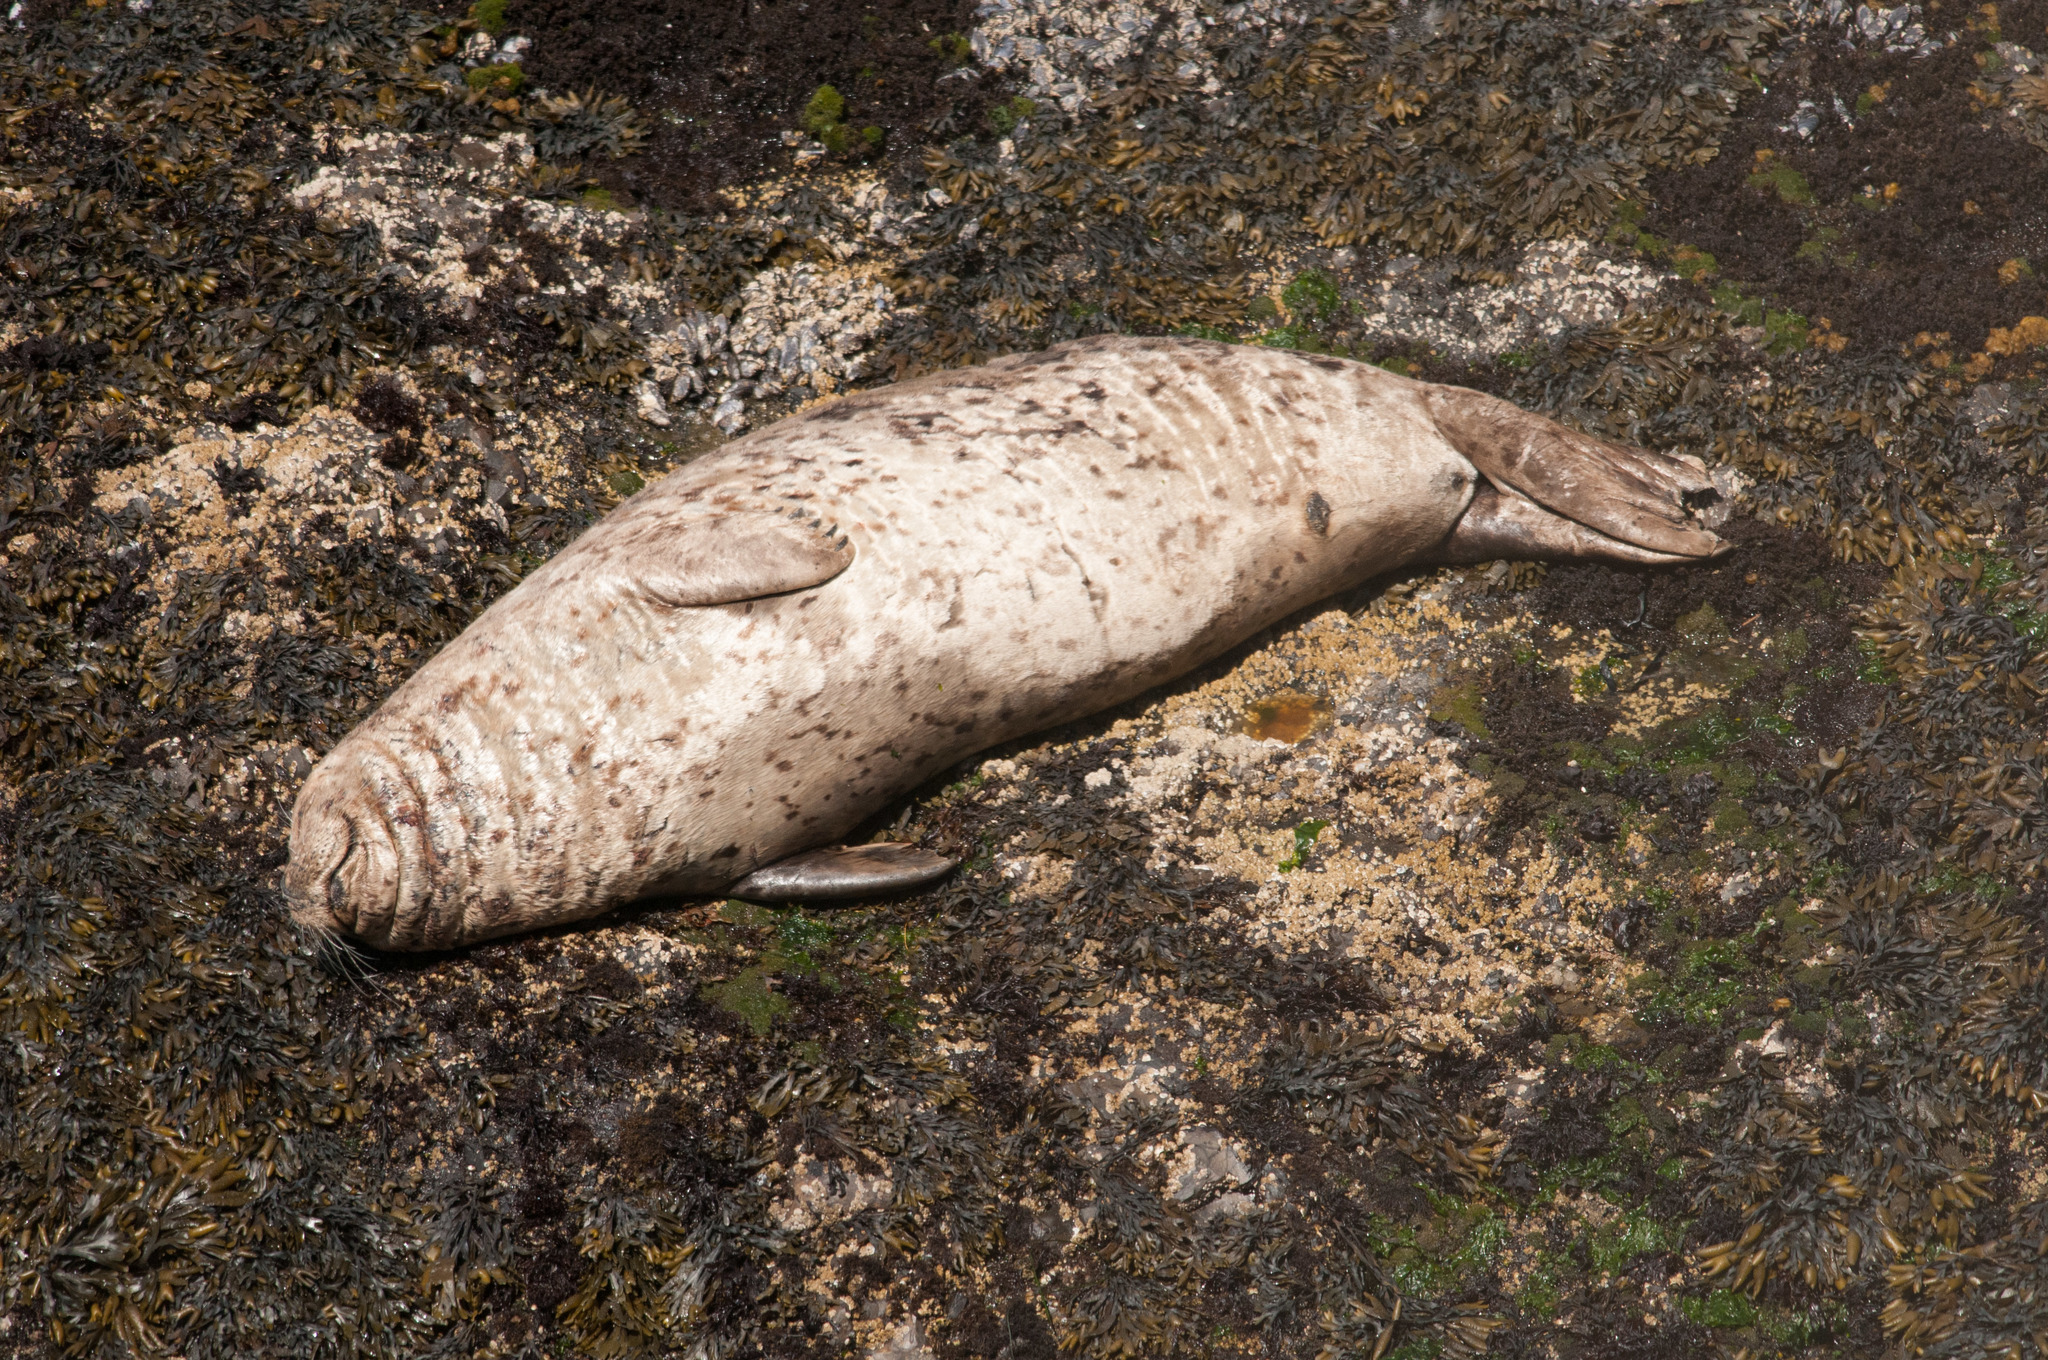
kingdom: Animalia
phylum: Chordata
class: Mammalia
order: Carnivora
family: Phocidae
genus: Phoca
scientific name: Phoca vitulina
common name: Harbor seal
